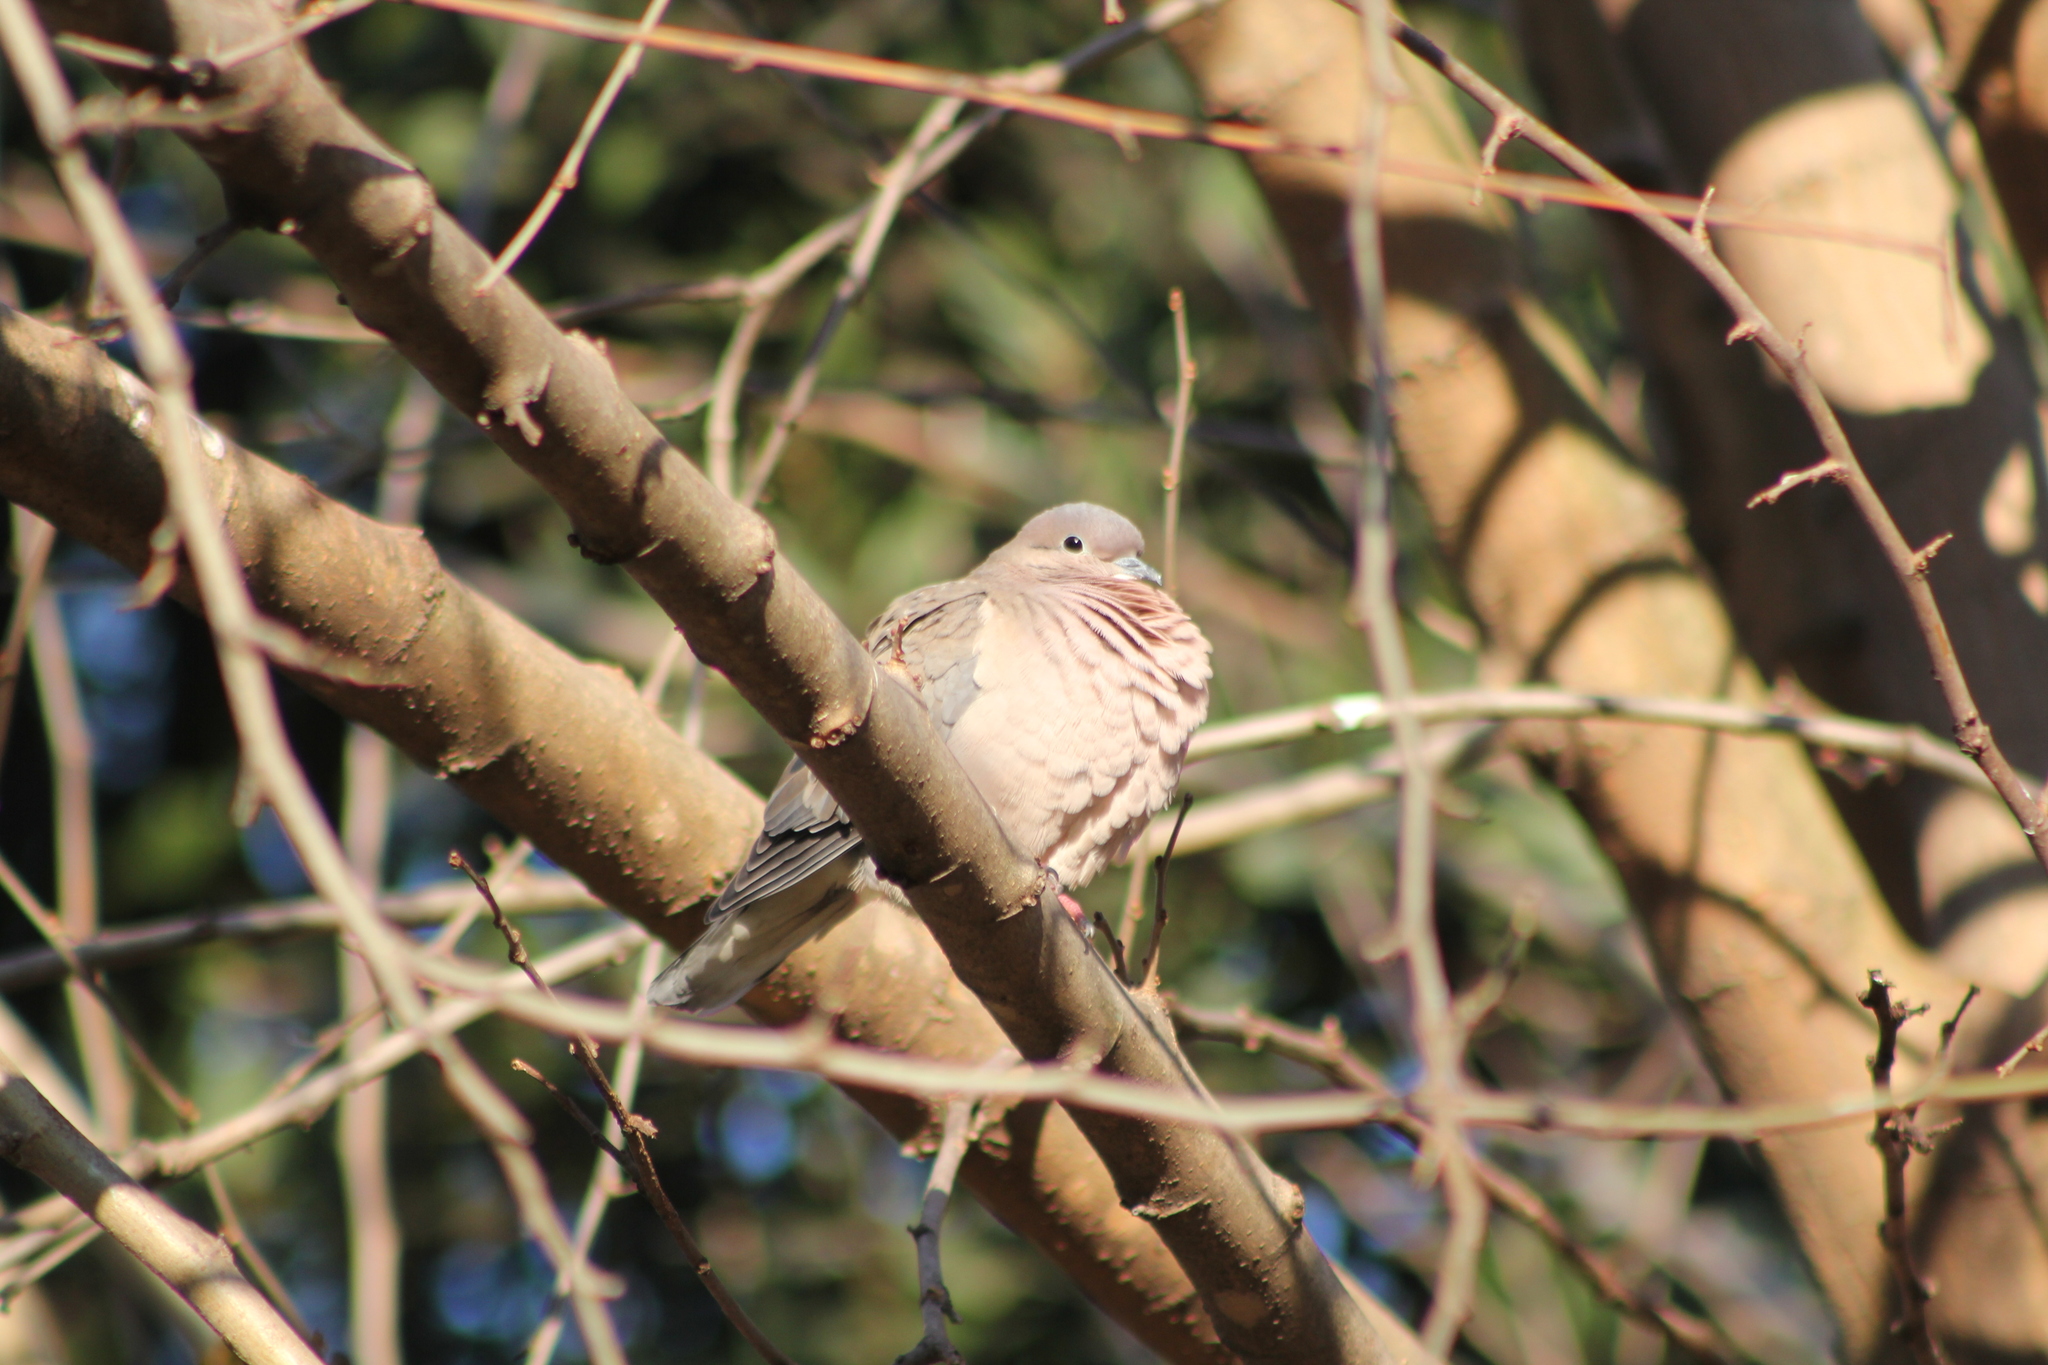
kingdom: Animalia
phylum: Chordata
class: Aves
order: Columbiformes
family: Columbidae
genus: Zenaida
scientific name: Zenaida auriculata
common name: Eared dove
